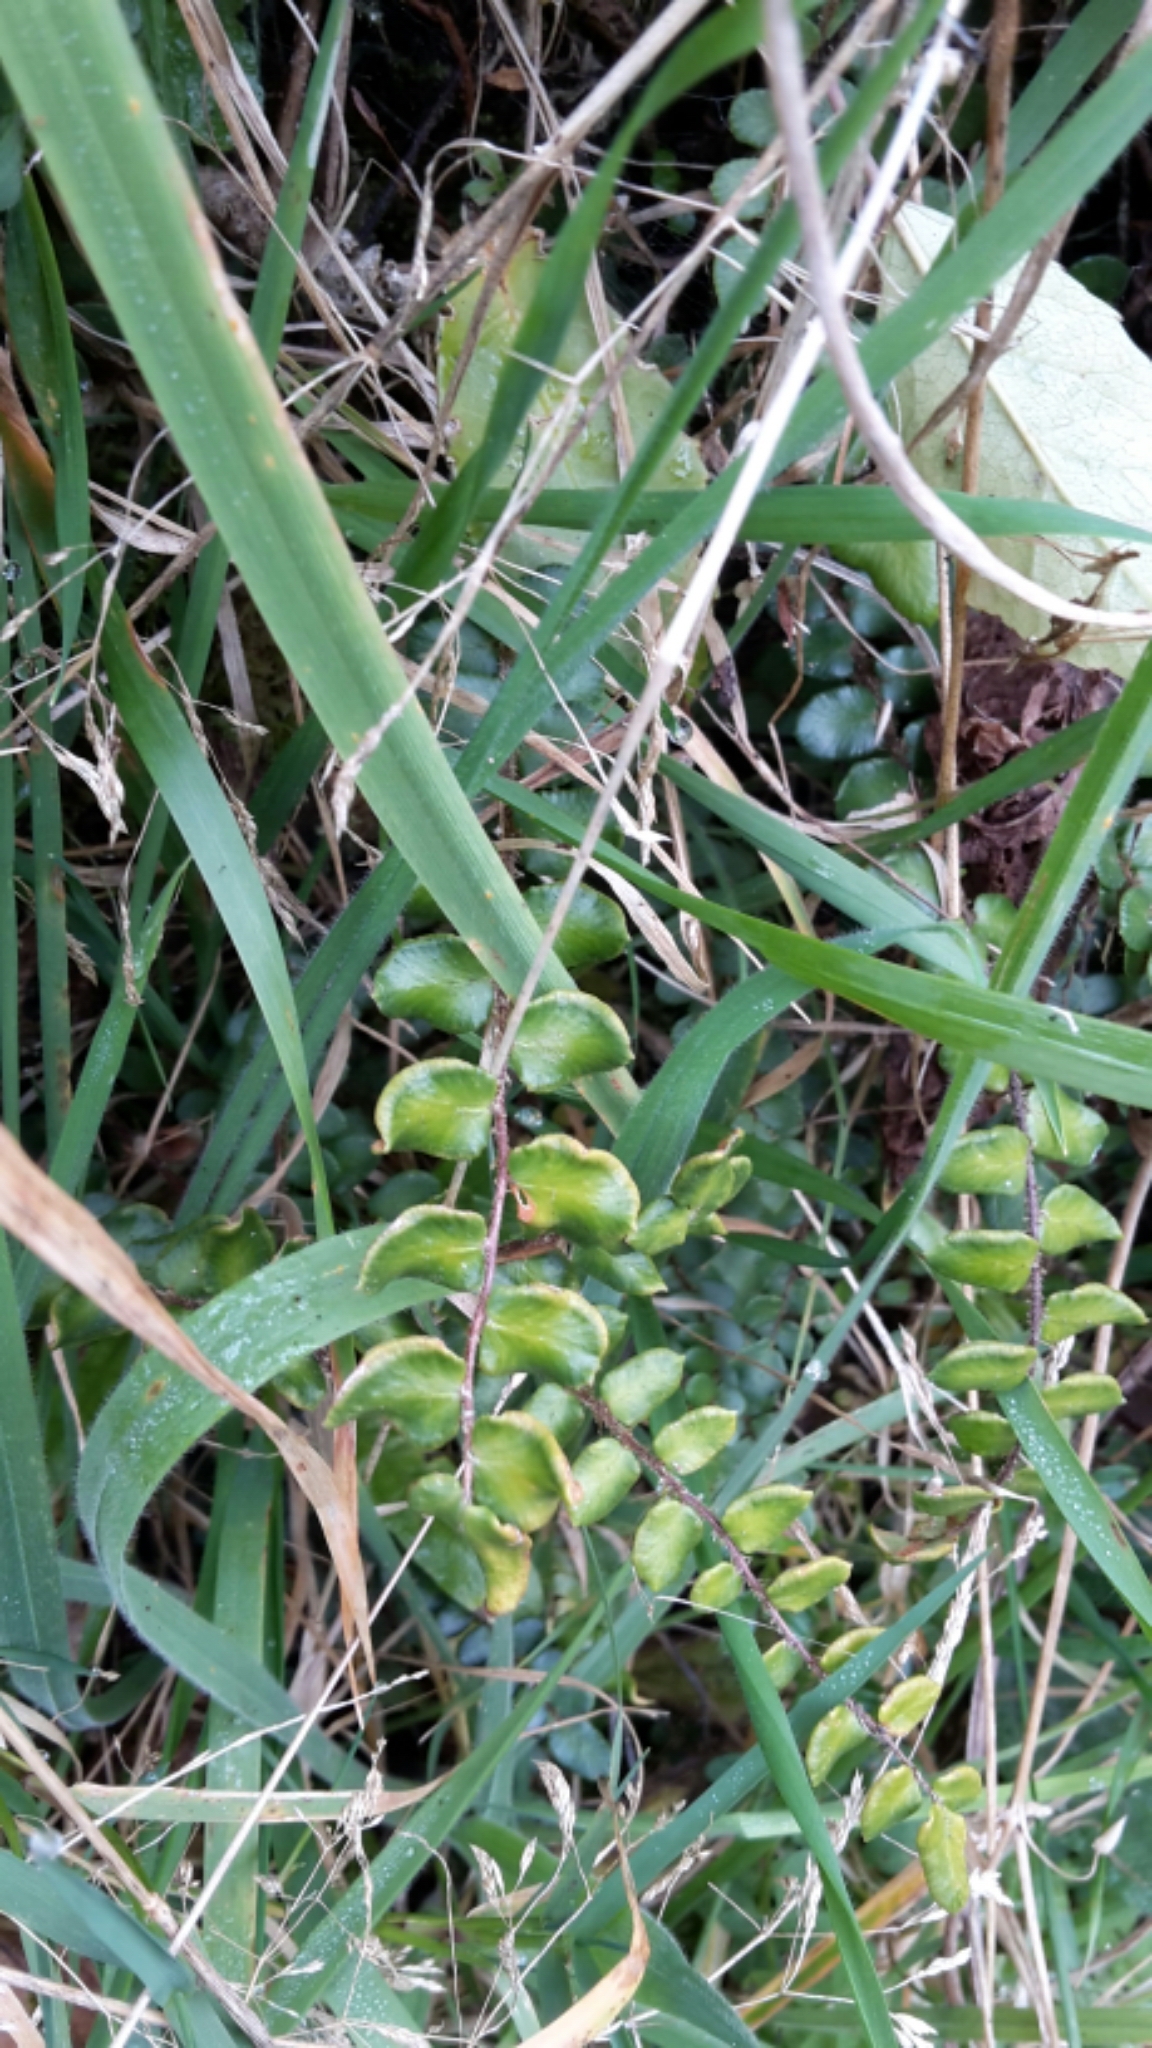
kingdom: Plantae
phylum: Tracheophyta
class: Polypodiopsida
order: Polypodiales
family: Pteridaceae
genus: Pellaea
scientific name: Pellaea rotundifolia
